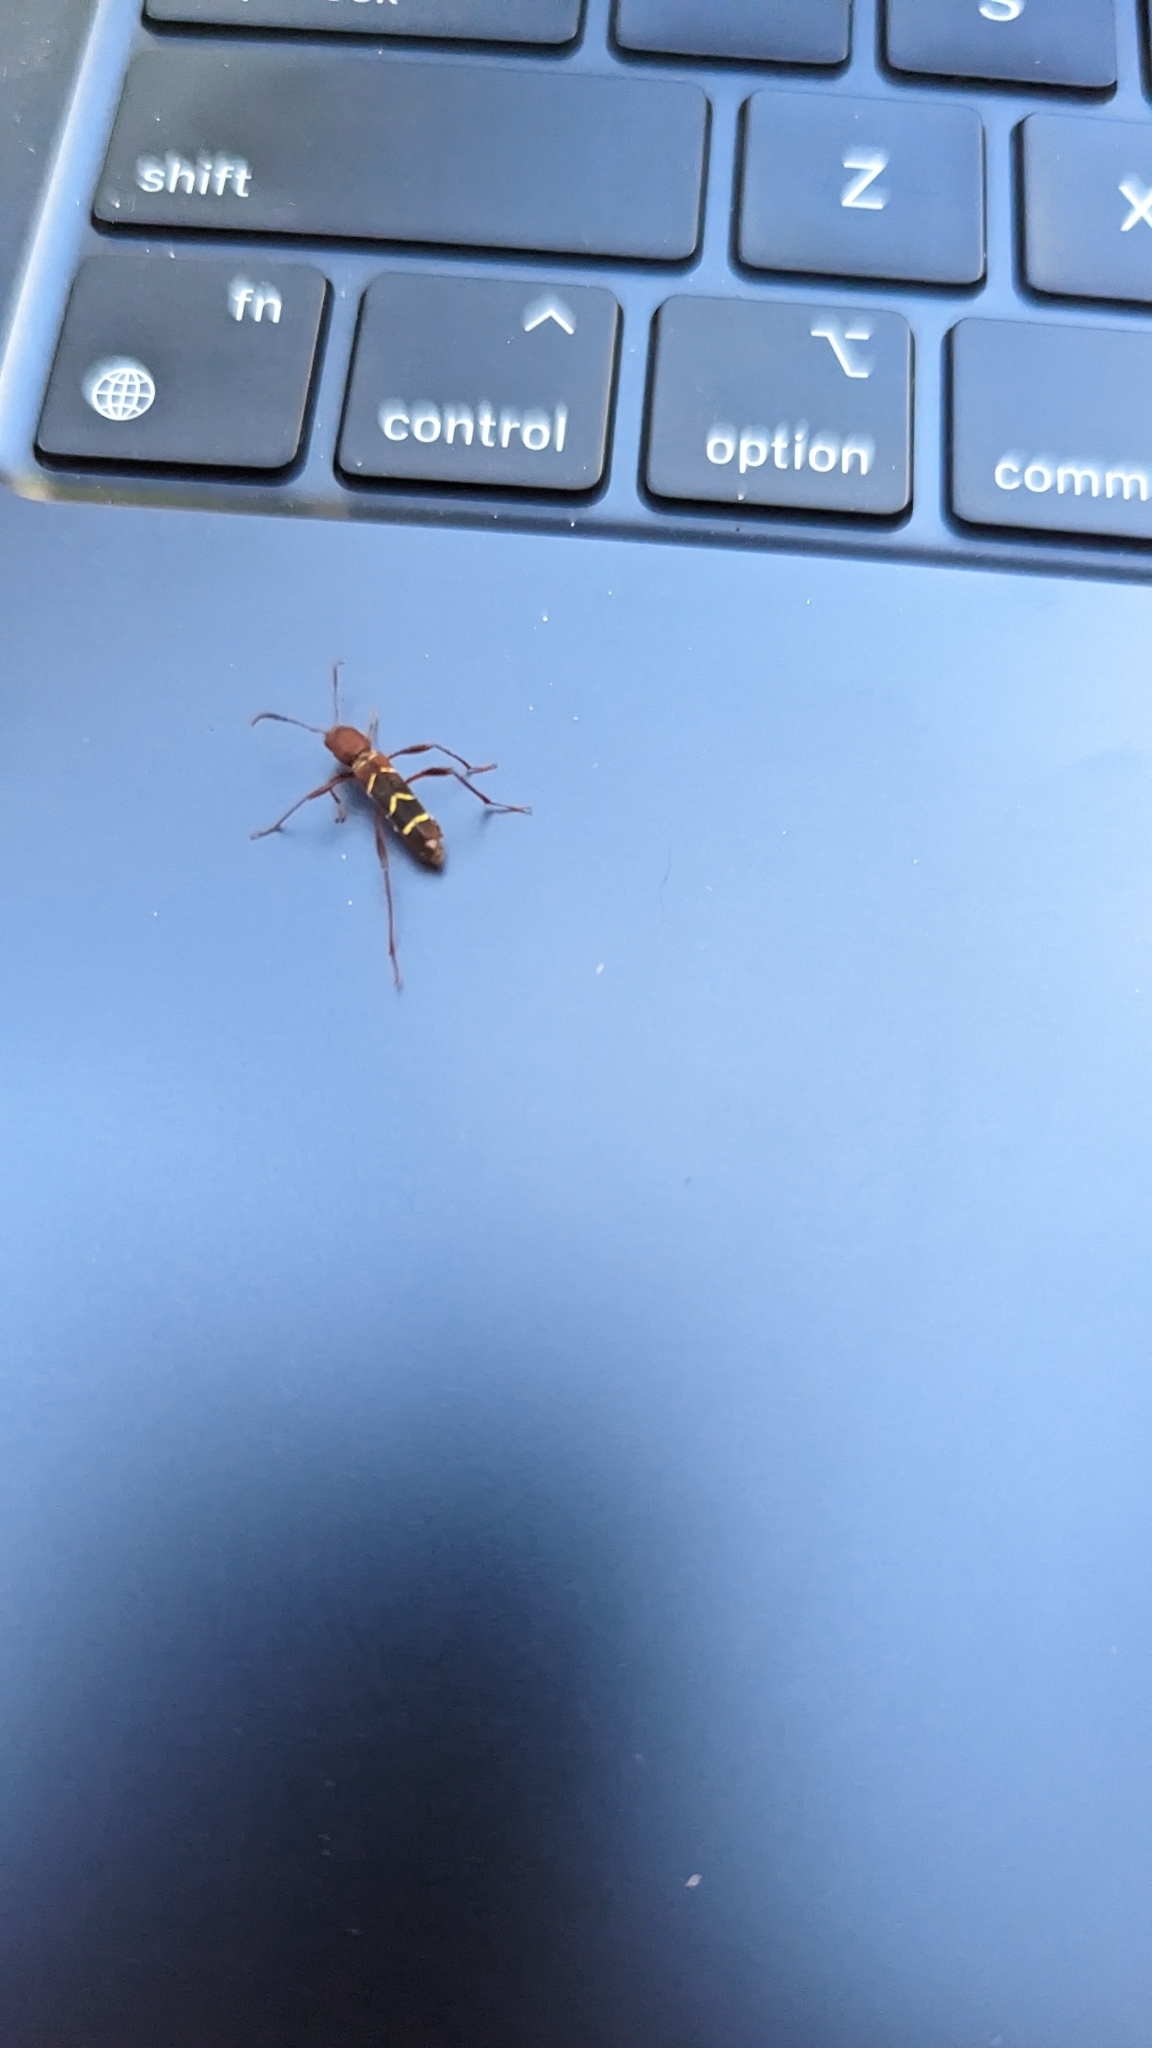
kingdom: Animalia
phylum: Arthropoda
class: Insecta
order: Coleoptera
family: Cerambycidae
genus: Neoclytus
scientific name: Neoclytus acuminatus
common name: Read-headed ash borer
